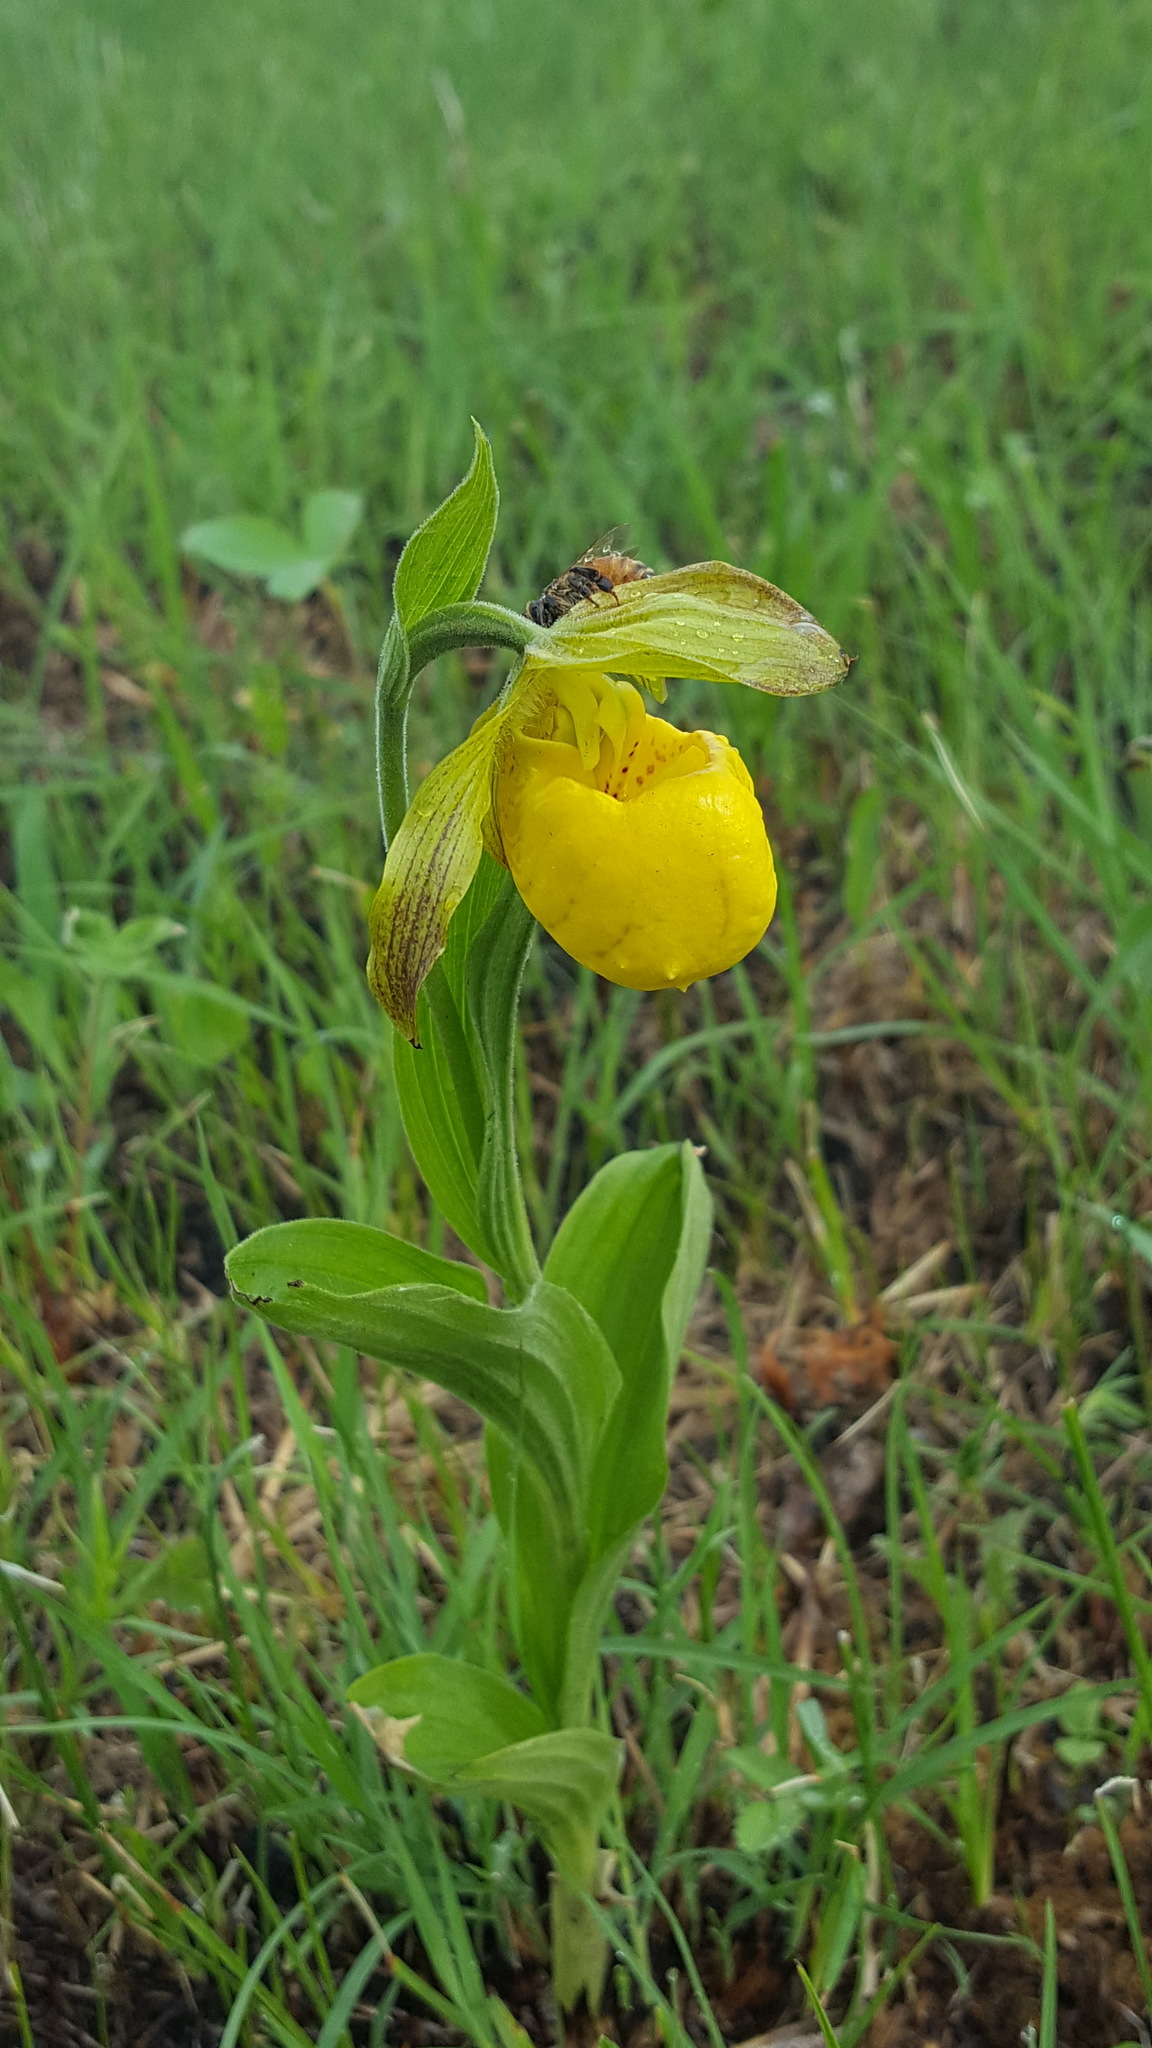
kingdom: Plantae
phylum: Tracheophyta
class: Liliopsida
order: Asparagales
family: Orchidaceae
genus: Cypripedium
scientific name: Cypripedium parviflorum
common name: American yellow lady's-slipper
